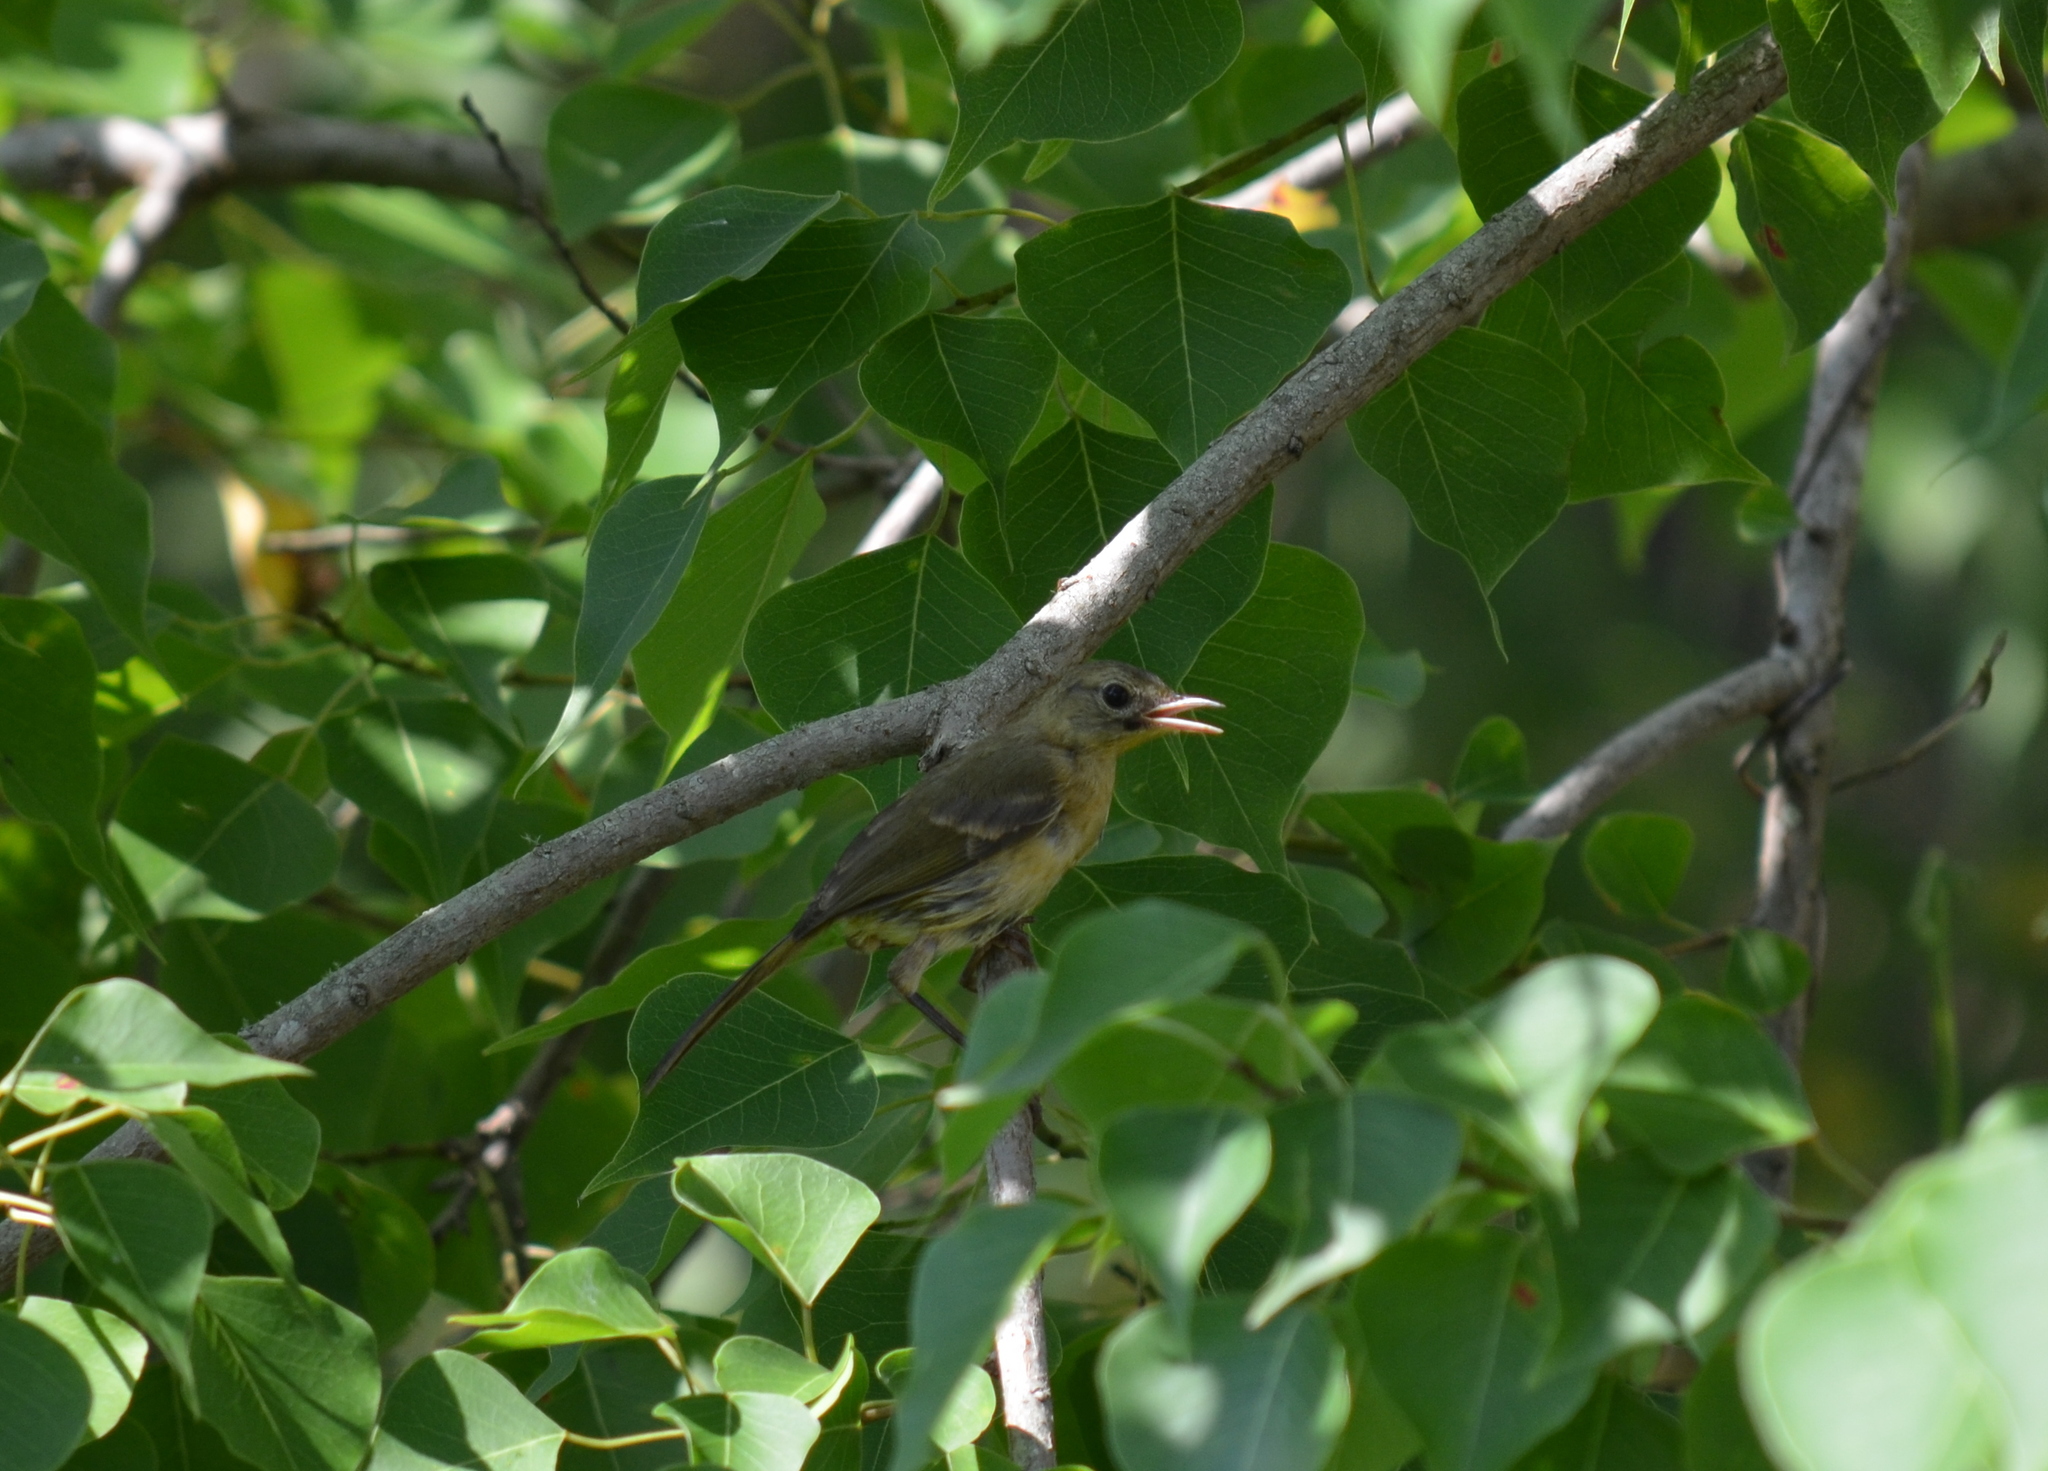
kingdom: Animalia
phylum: Chordata
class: Aves
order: Passeriformes
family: Parulidae
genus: Geothlypis
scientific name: Geothlypis trichas
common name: Common yellowthroat
